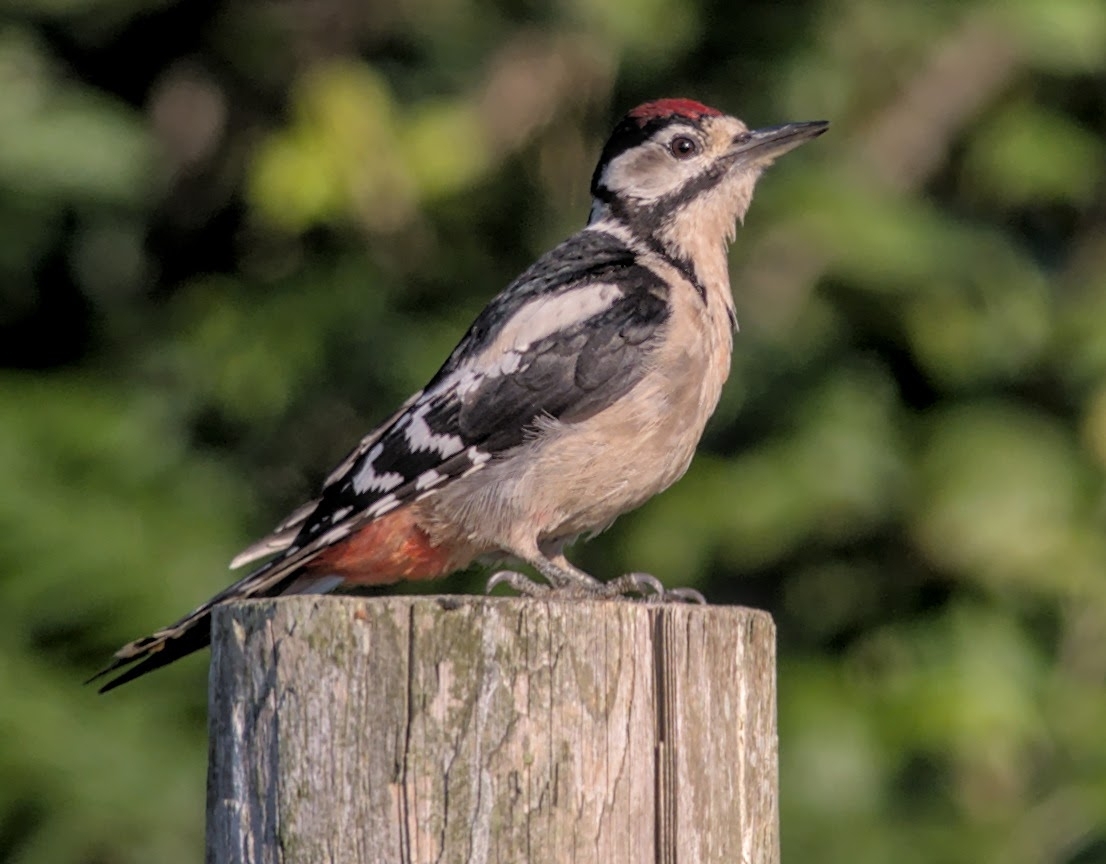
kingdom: Animalia
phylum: Chordata
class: Aves
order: Piciformes
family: Picidae
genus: Dendrocopos
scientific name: Dendrocopos major
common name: Great spotted woodpecker
